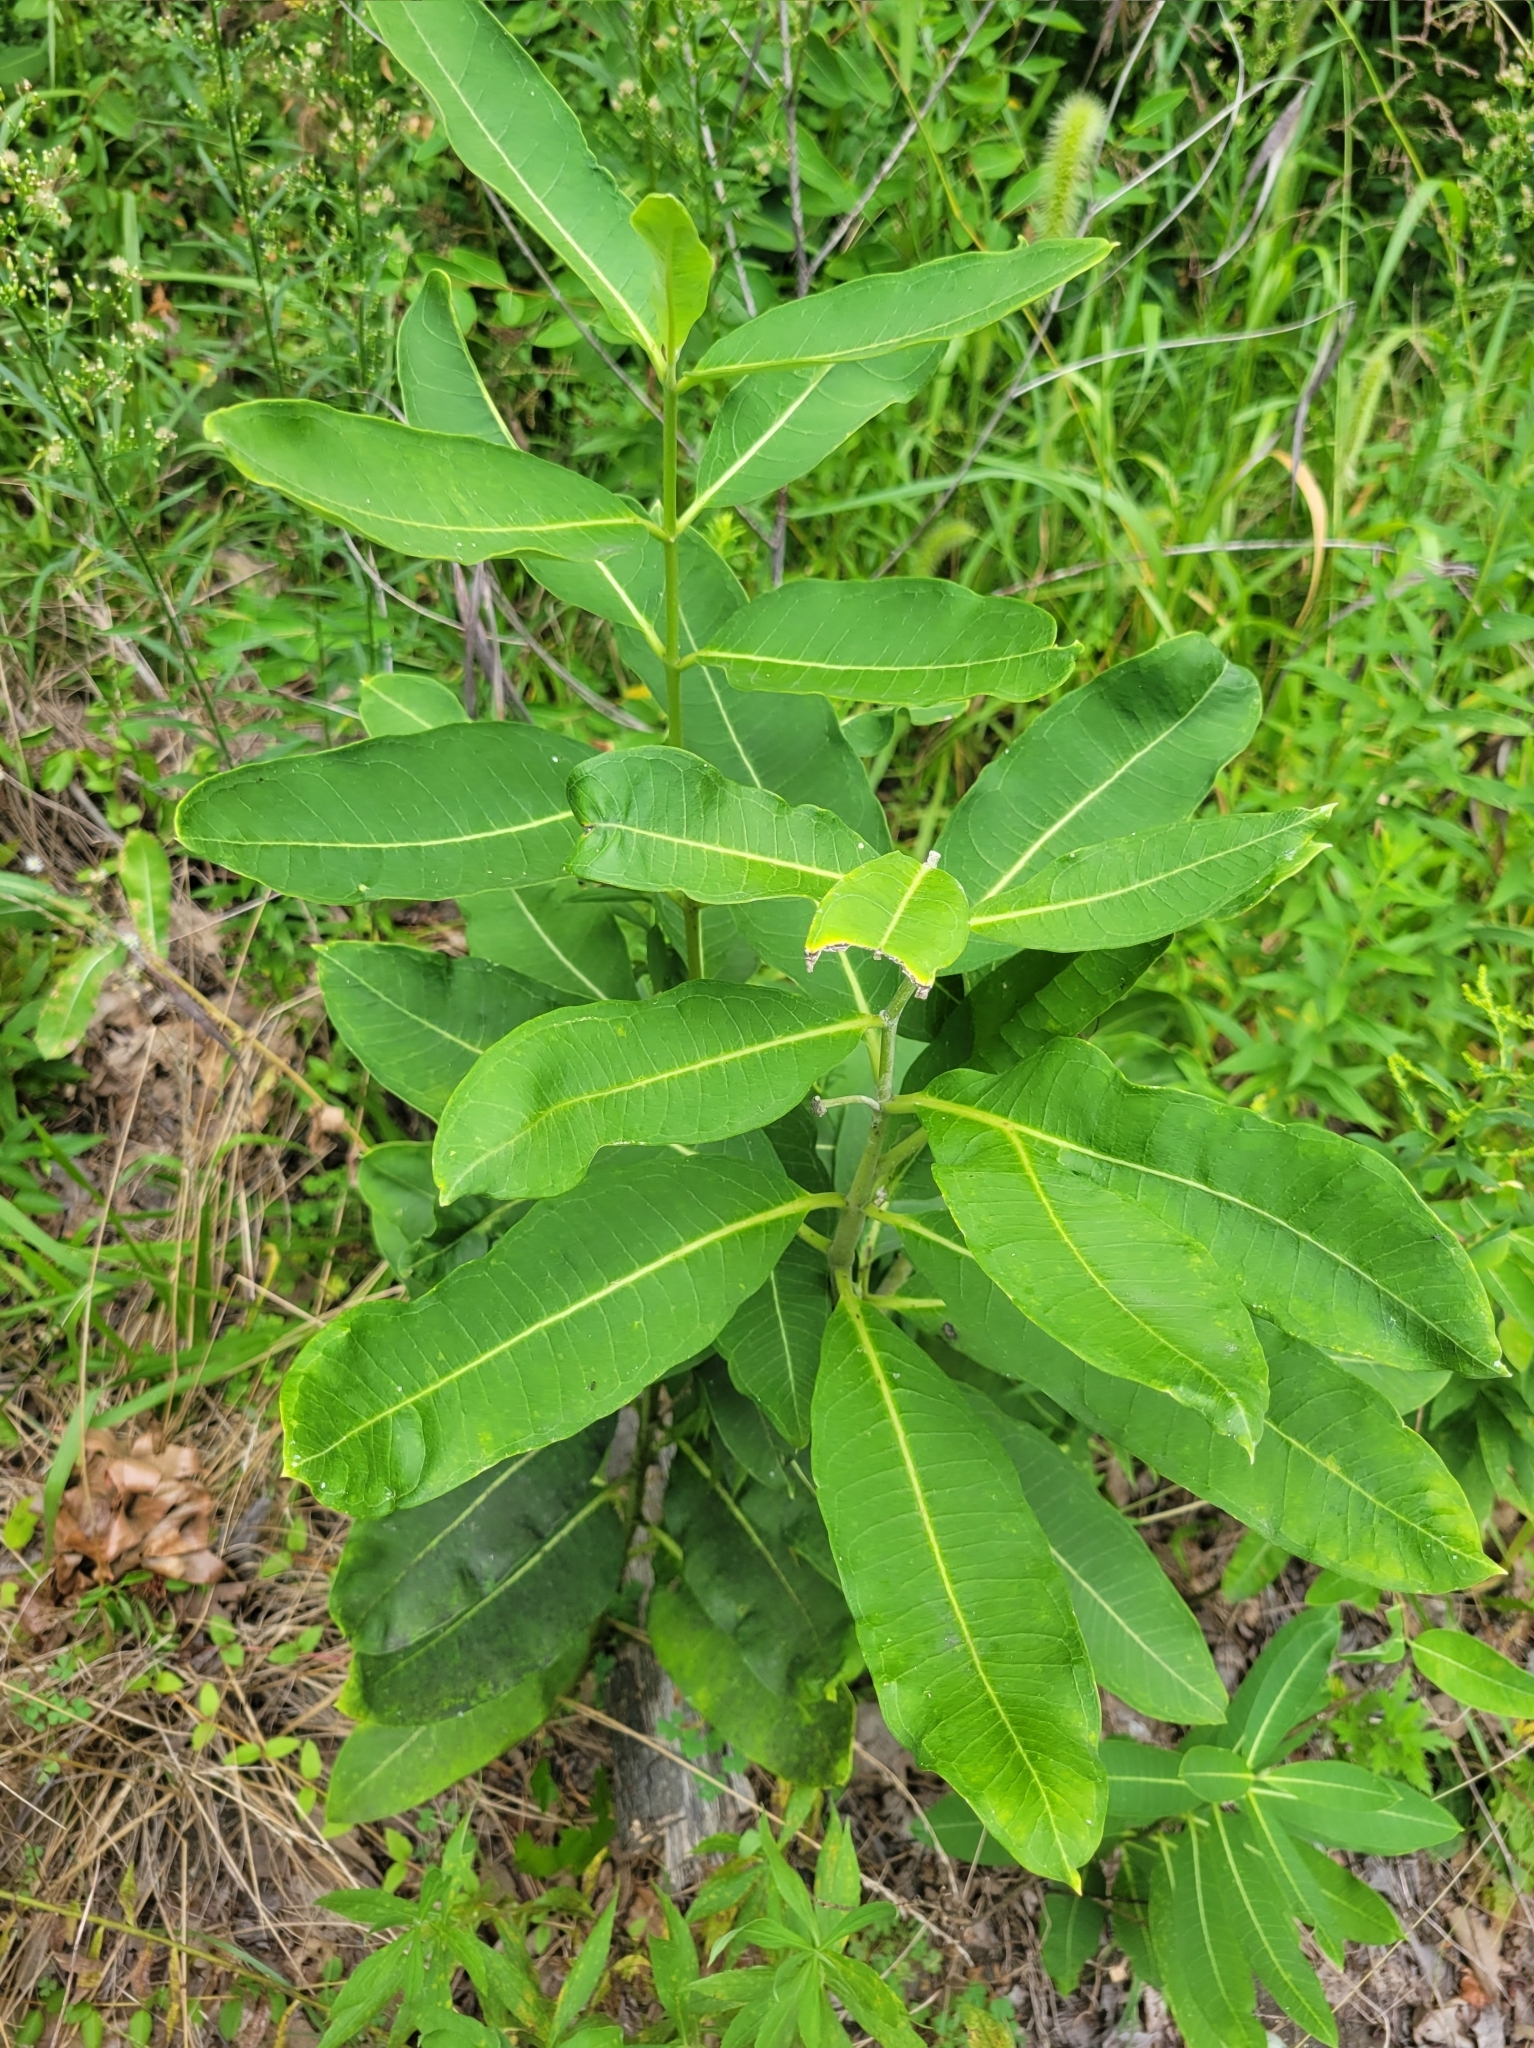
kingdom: Plantae
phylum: Tracheophyta
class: Magnoliopsida
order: Gentianales
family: Apocynaceae
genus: Asclepias
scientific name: Asclepias syriaca
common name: Common milkweed
